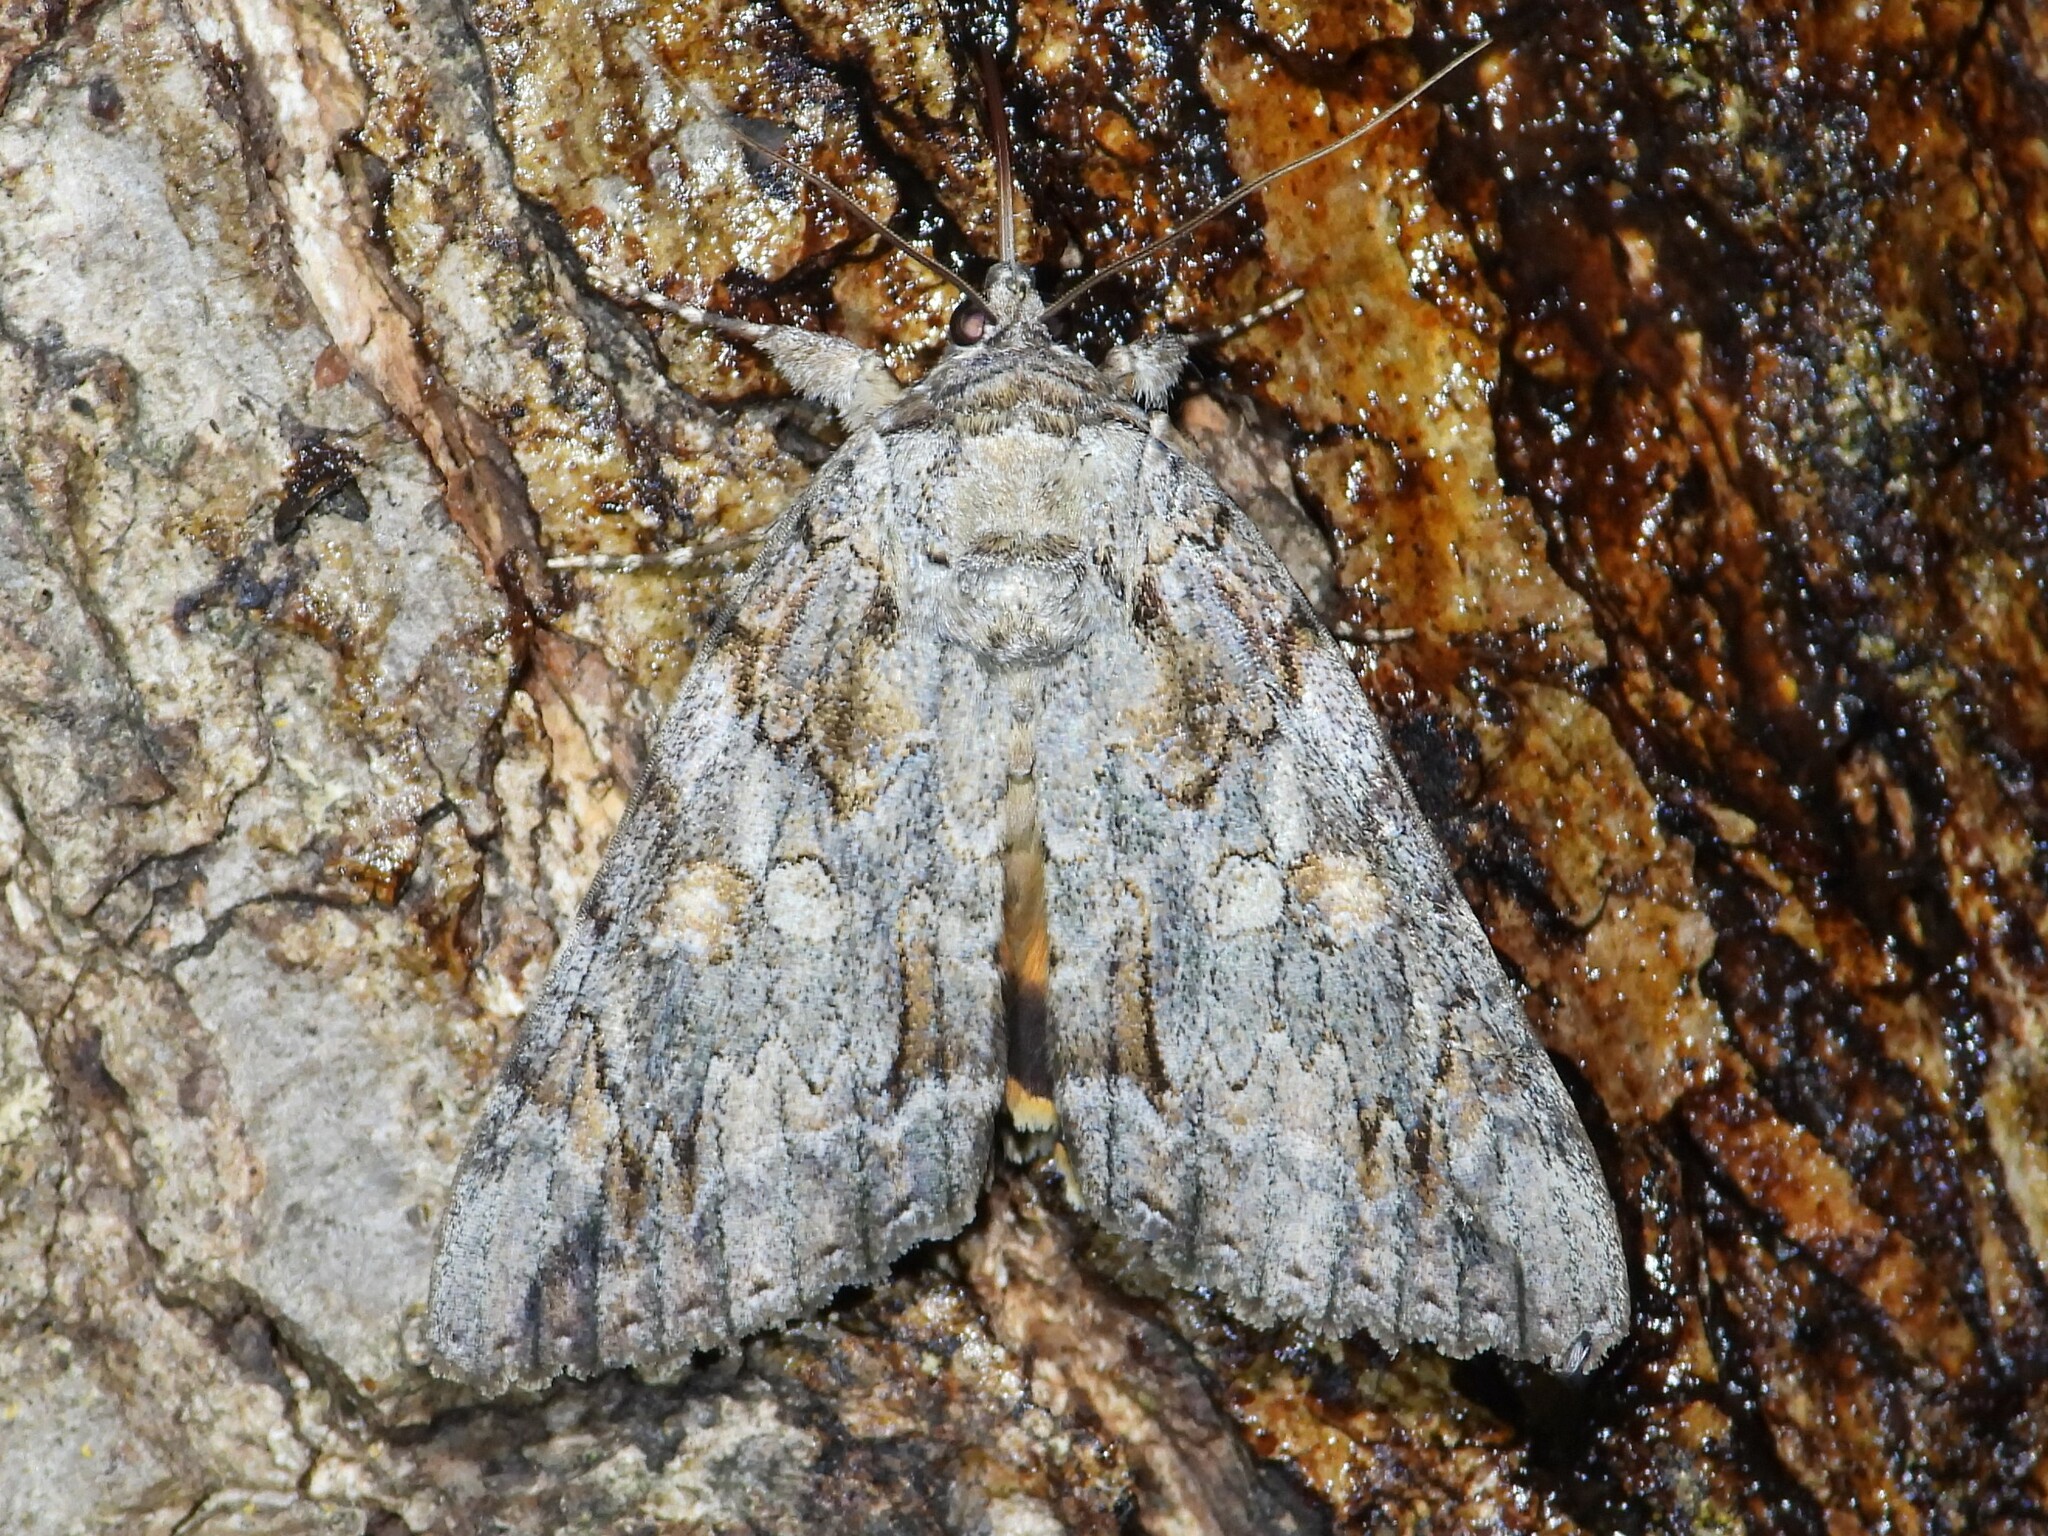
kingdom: Animalia
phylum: Arthropoda
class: Insecta
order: Lepidoptera
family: Erebidae
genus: Catocala
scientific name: Catocala neogama
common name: Bride underwing
